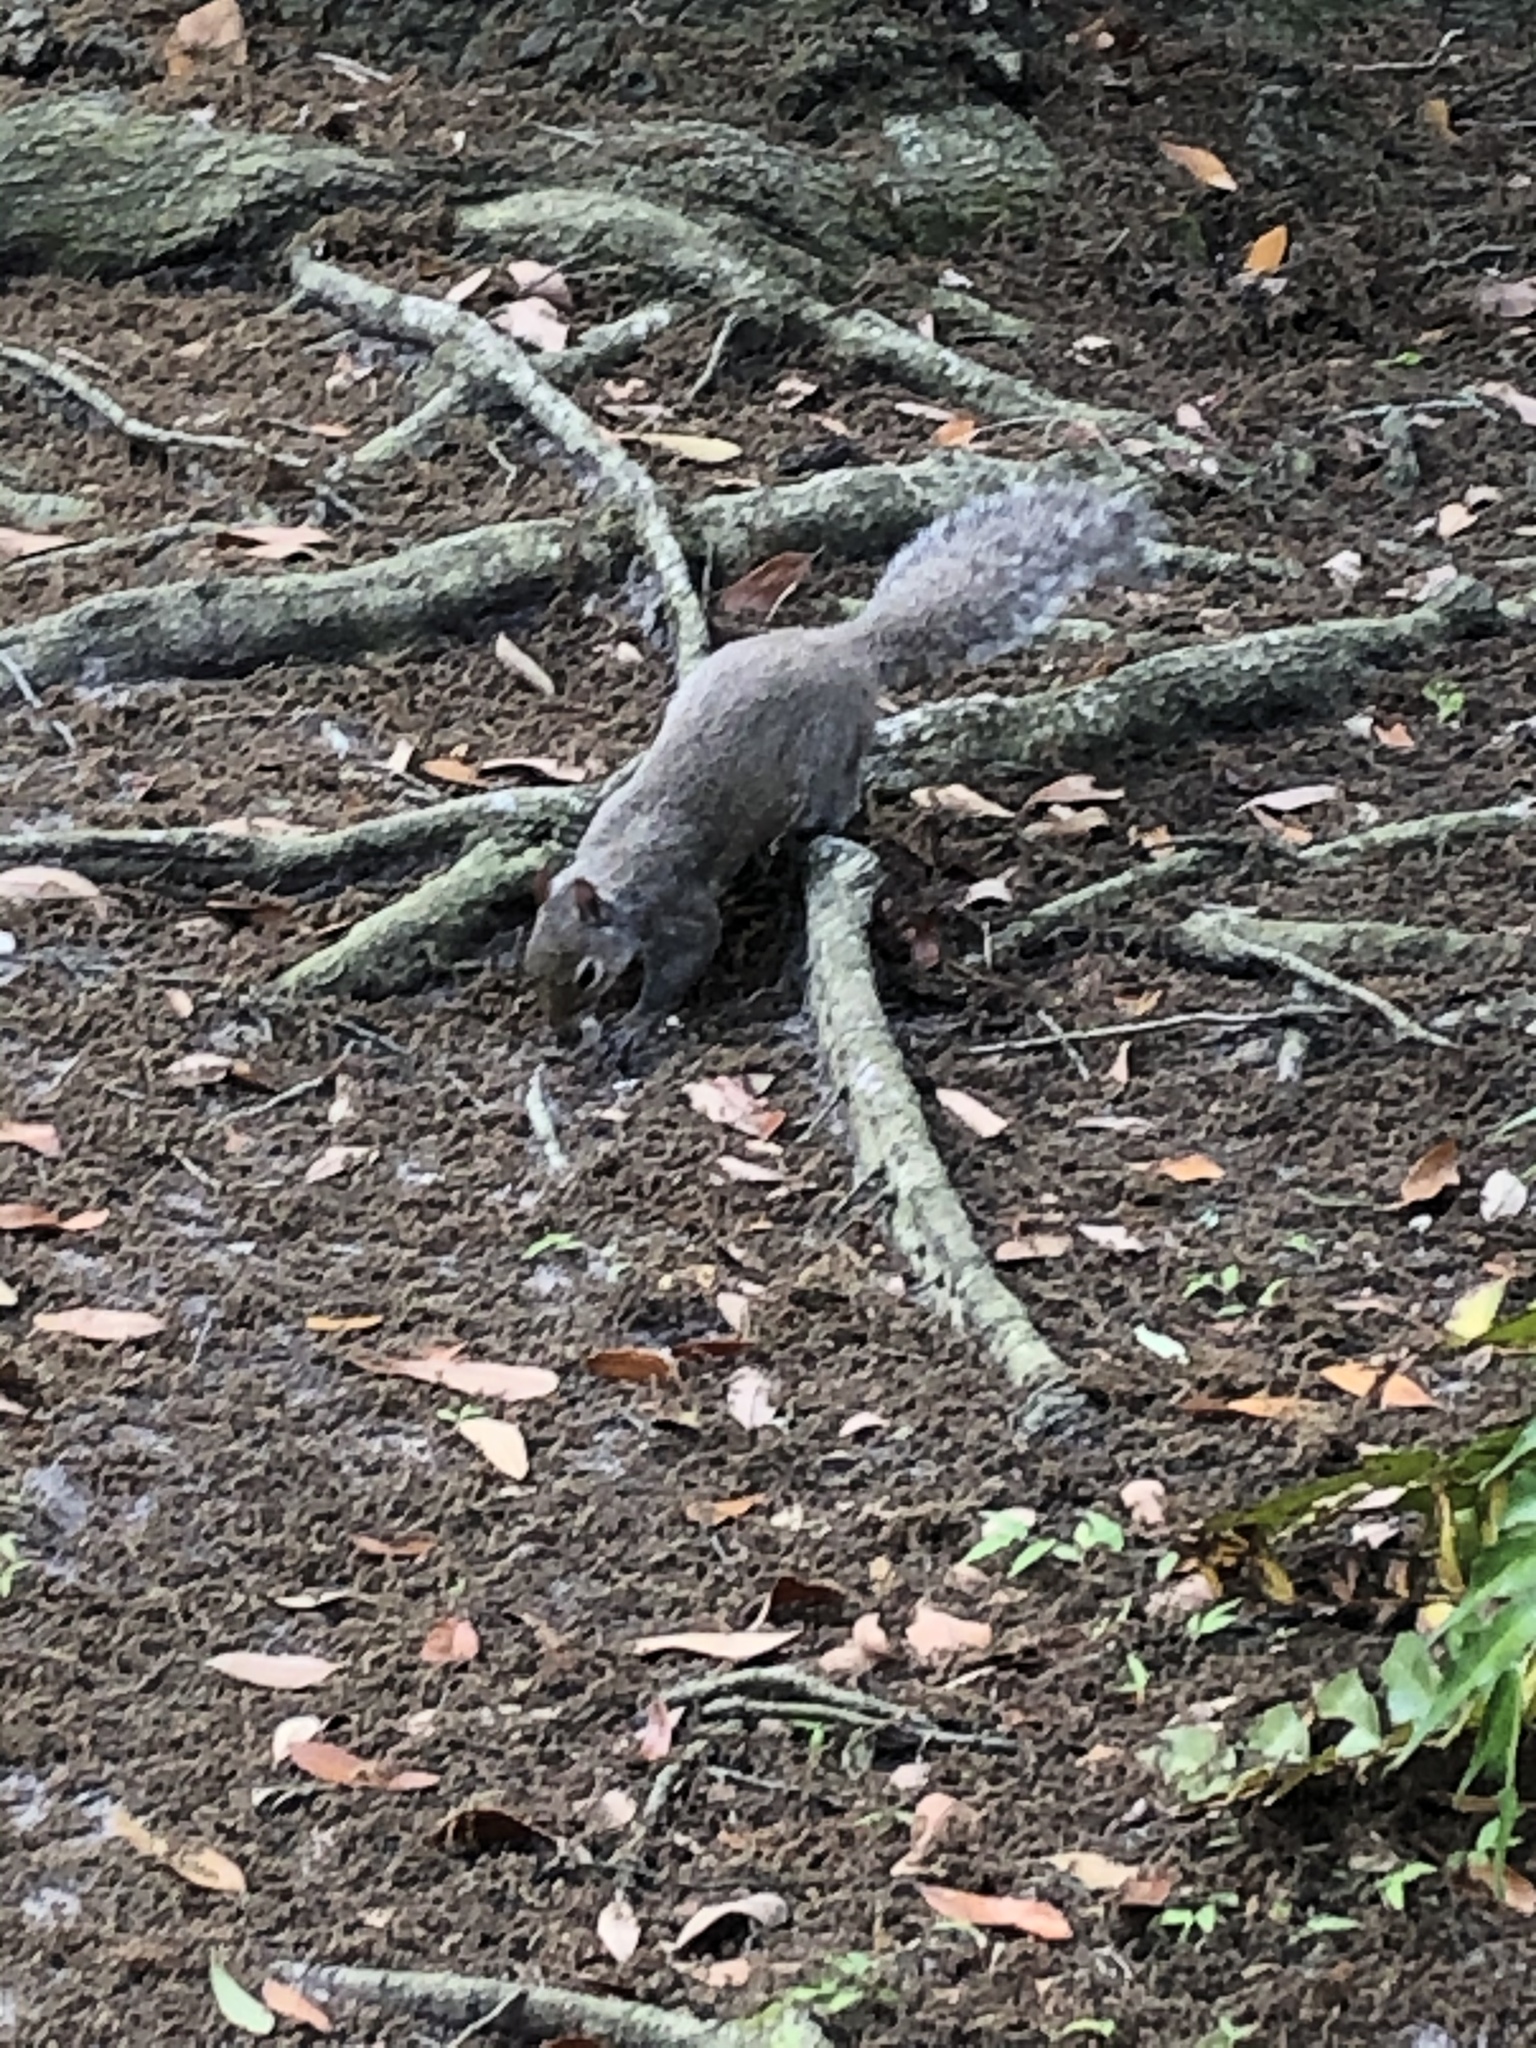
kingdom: Animalia
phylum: Chordata
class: Mammalia
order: Rodentia
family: Sciuridae
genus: Sciurus
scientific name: Sciurus carolinensis
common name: Eastern gray squirrel
